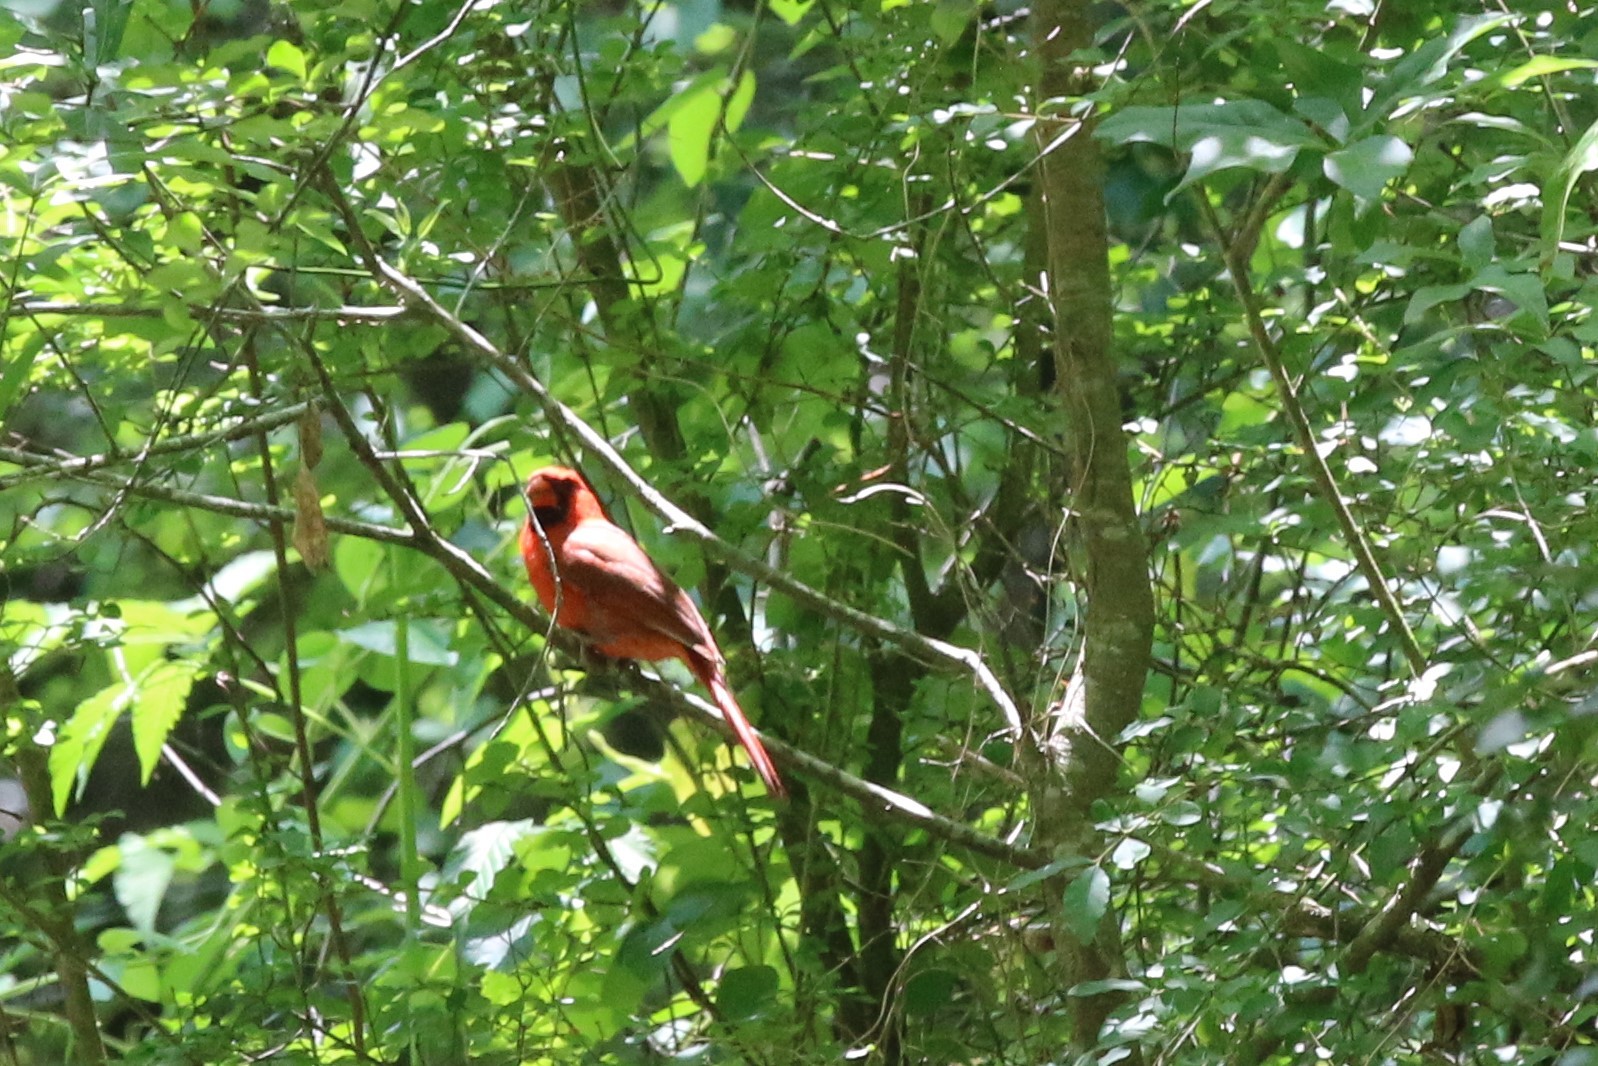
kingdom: Animalia
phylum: Chordata
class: Aves
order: Passeriformes
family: Cardinalidae
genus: Cardinalis
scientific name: Cardinalis cardinalis
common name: Northern cardinal
